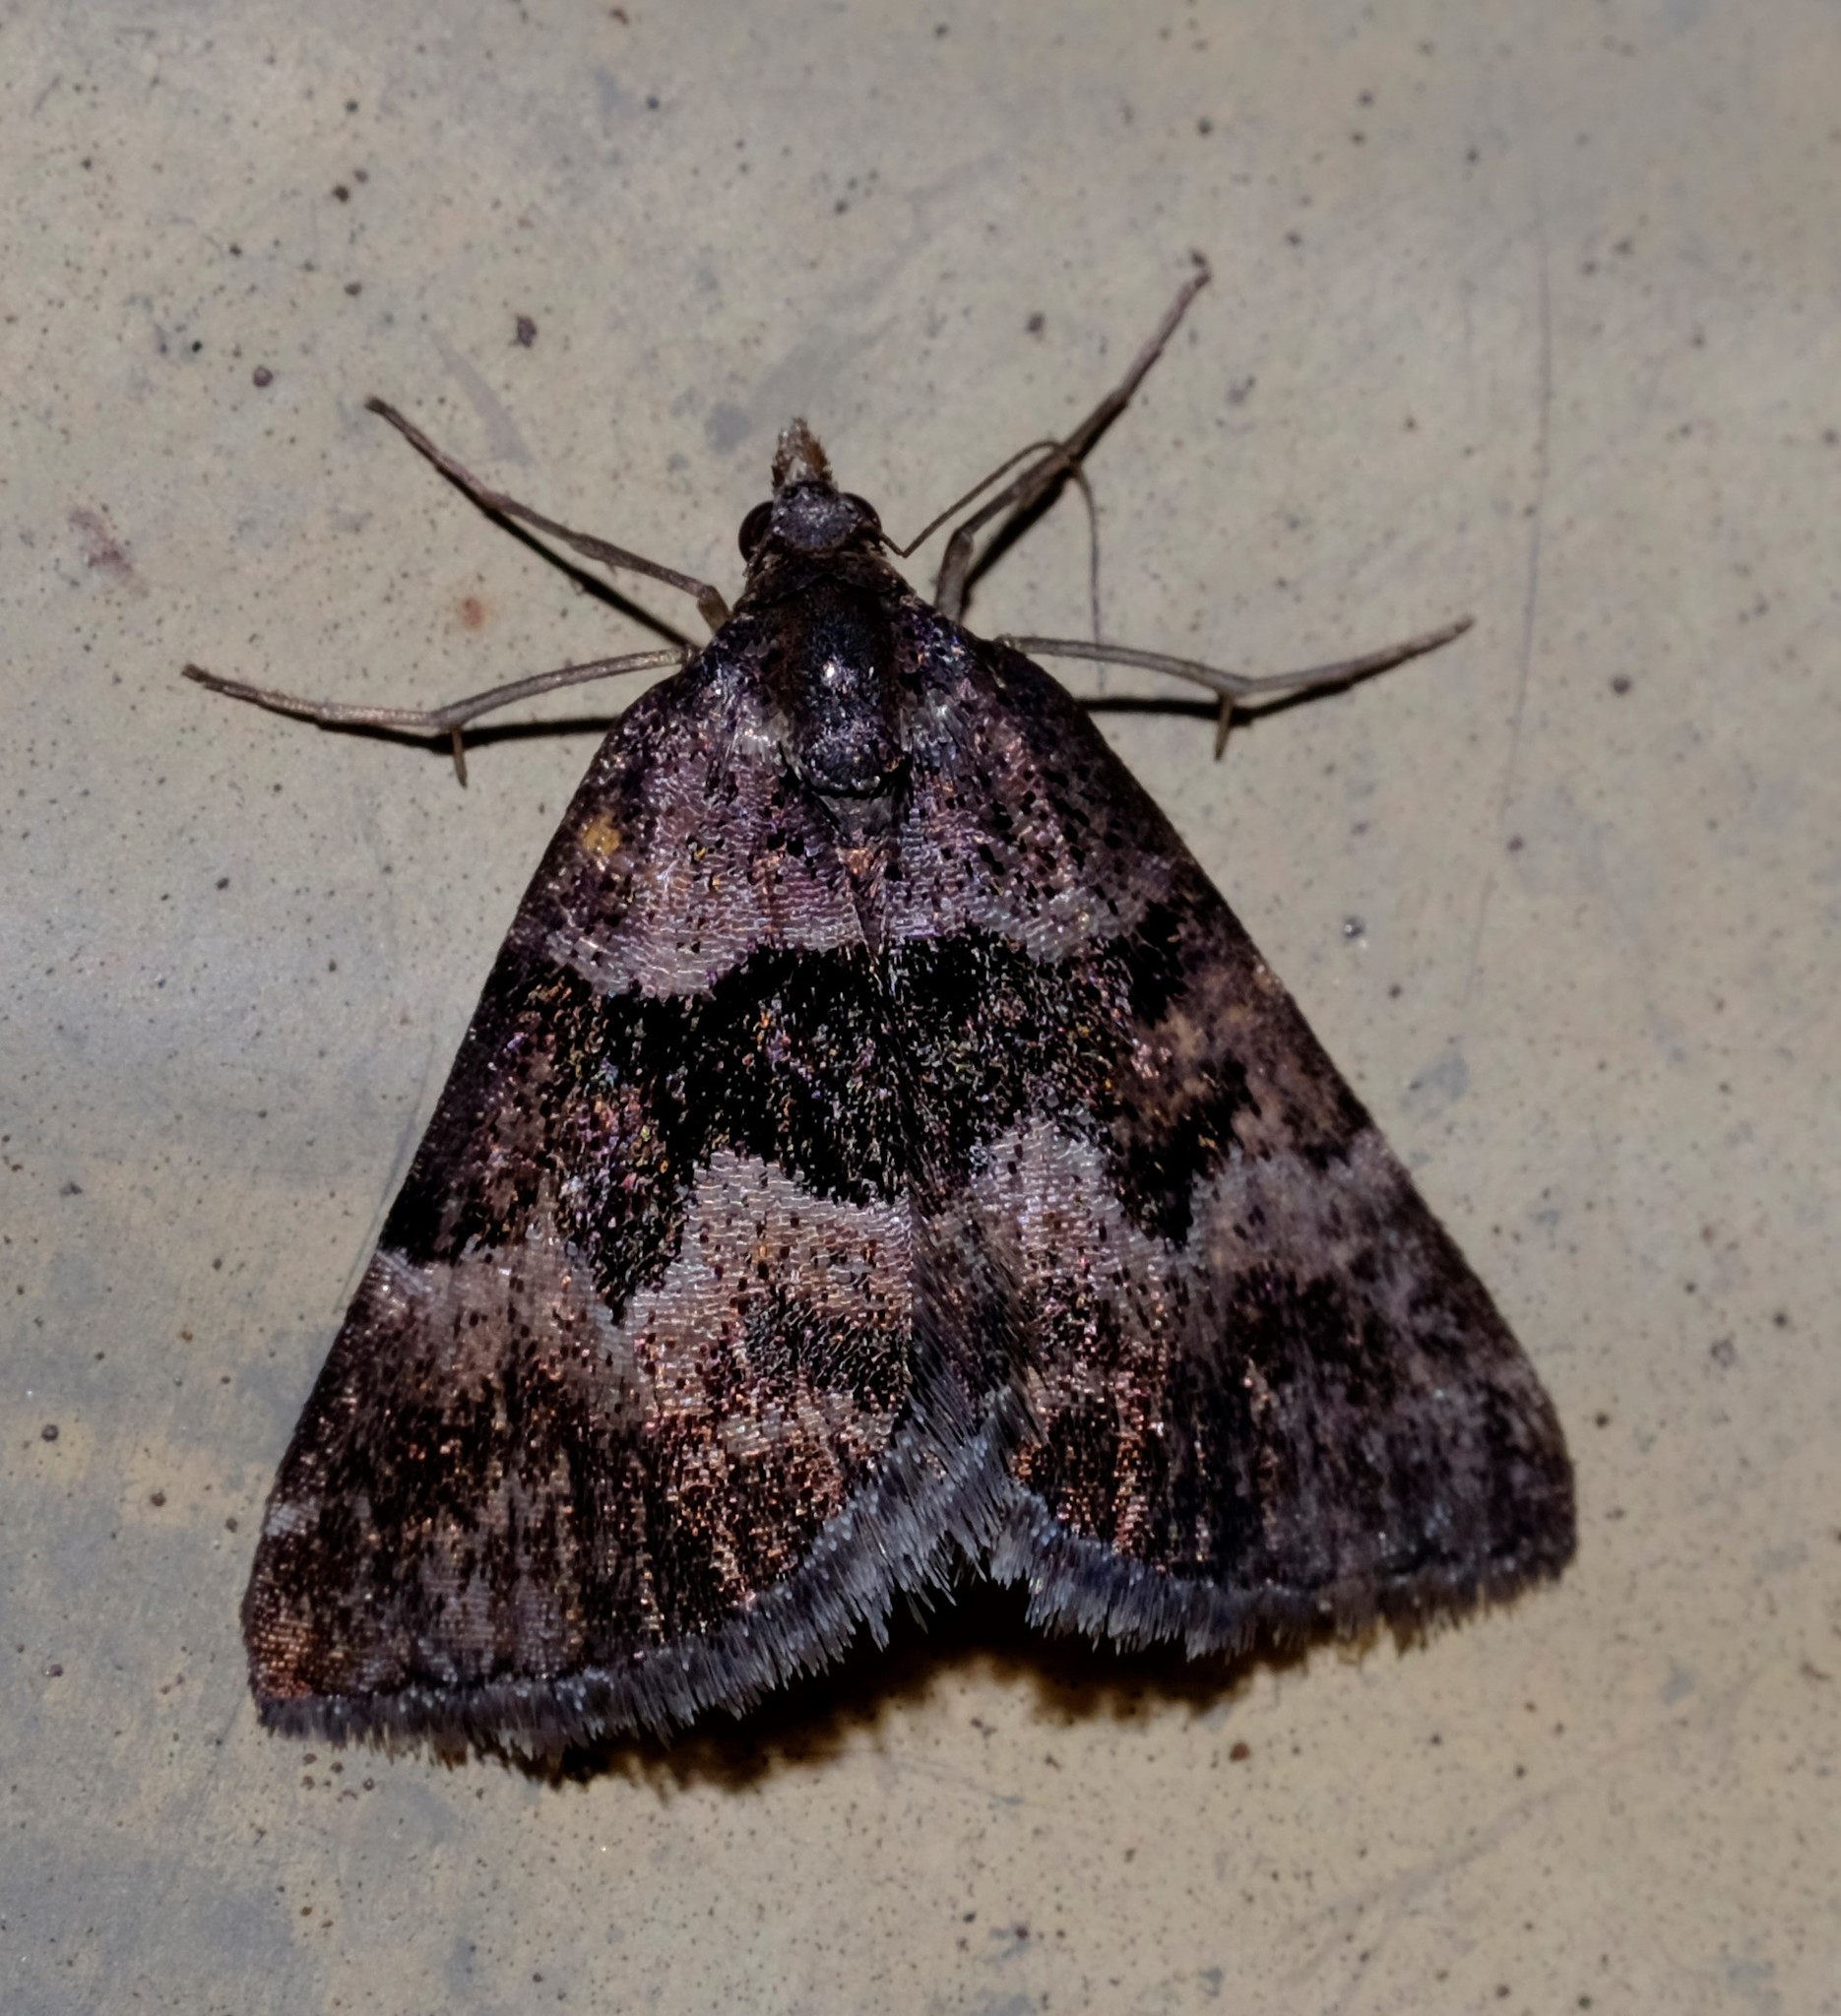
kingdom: Animalia
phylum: Arthropoda
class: Insecta
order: Lepidoptera
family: Geometridae
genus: Dichromodes
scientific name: Dichromodes ainaria
